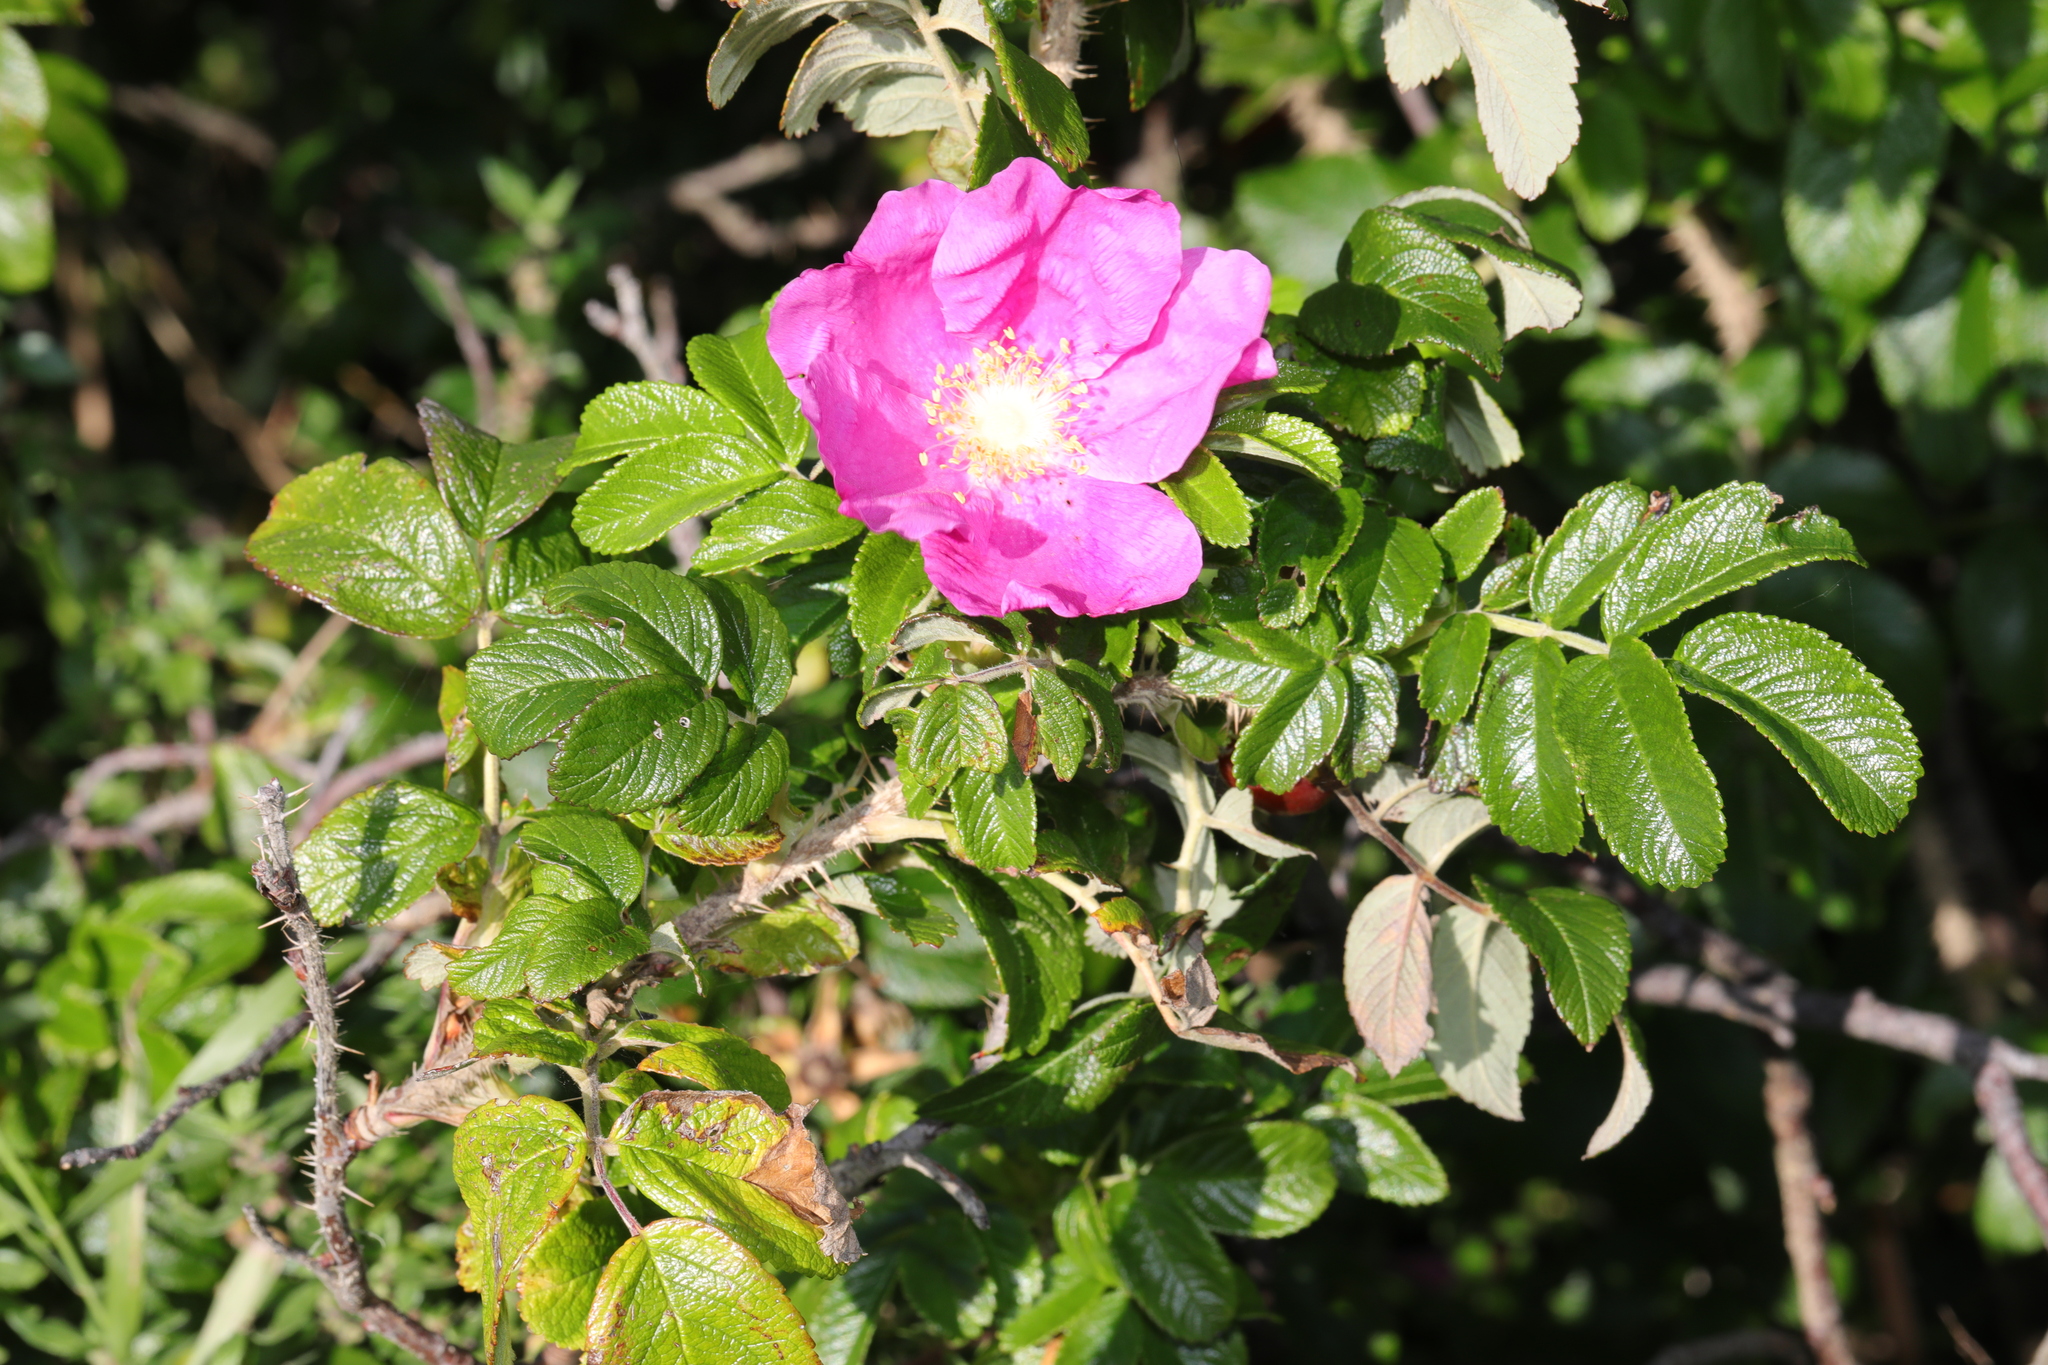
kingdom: Plantae
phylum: Tracheophyta
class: Magnoliopsida
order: Rosales
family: Rosaceae
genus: Rosa
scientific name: Rosa rugosa
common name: Japanese rose
